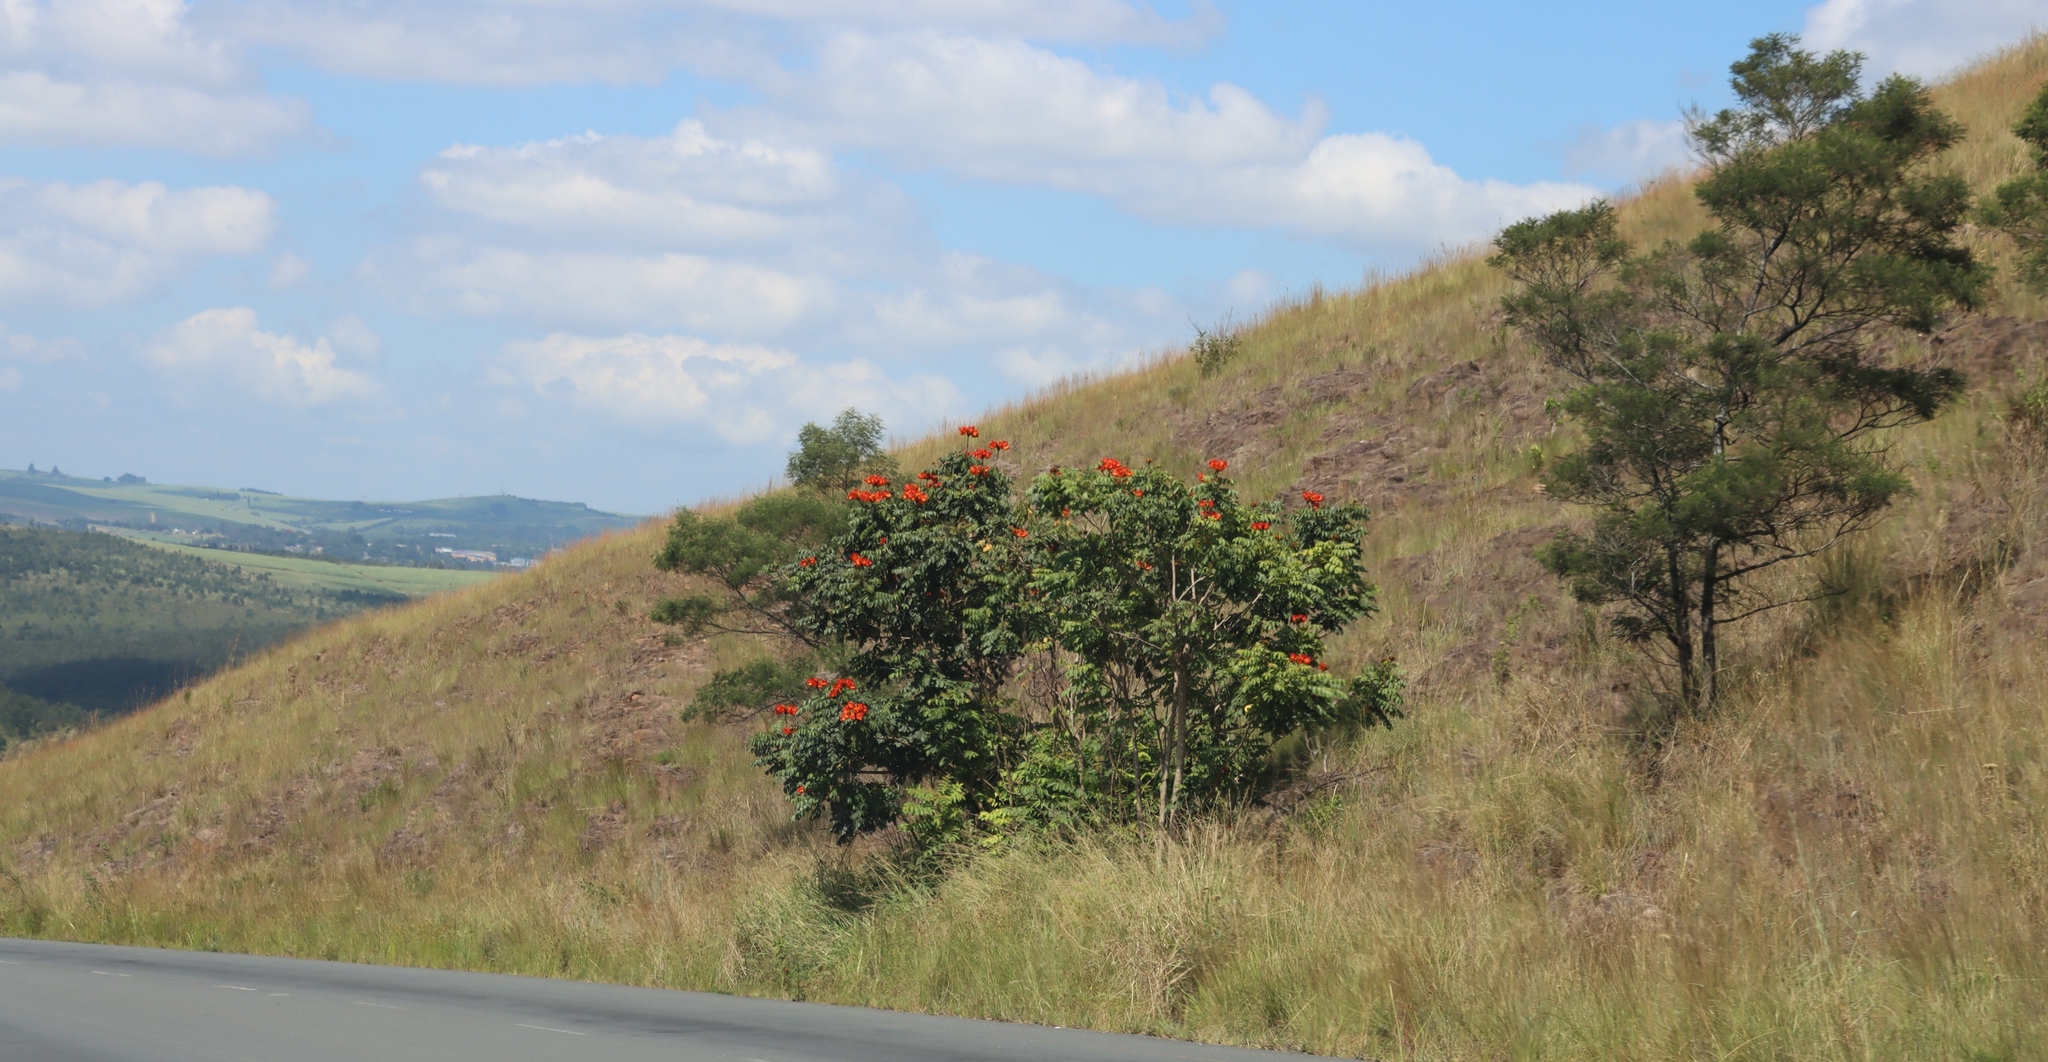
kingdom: Plantae
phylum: Tracheophyta
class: Magnoliopsida
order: Fabales
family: Fabaceae
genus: Acacia
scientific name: Acacia mearnsii
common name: Black wattle
